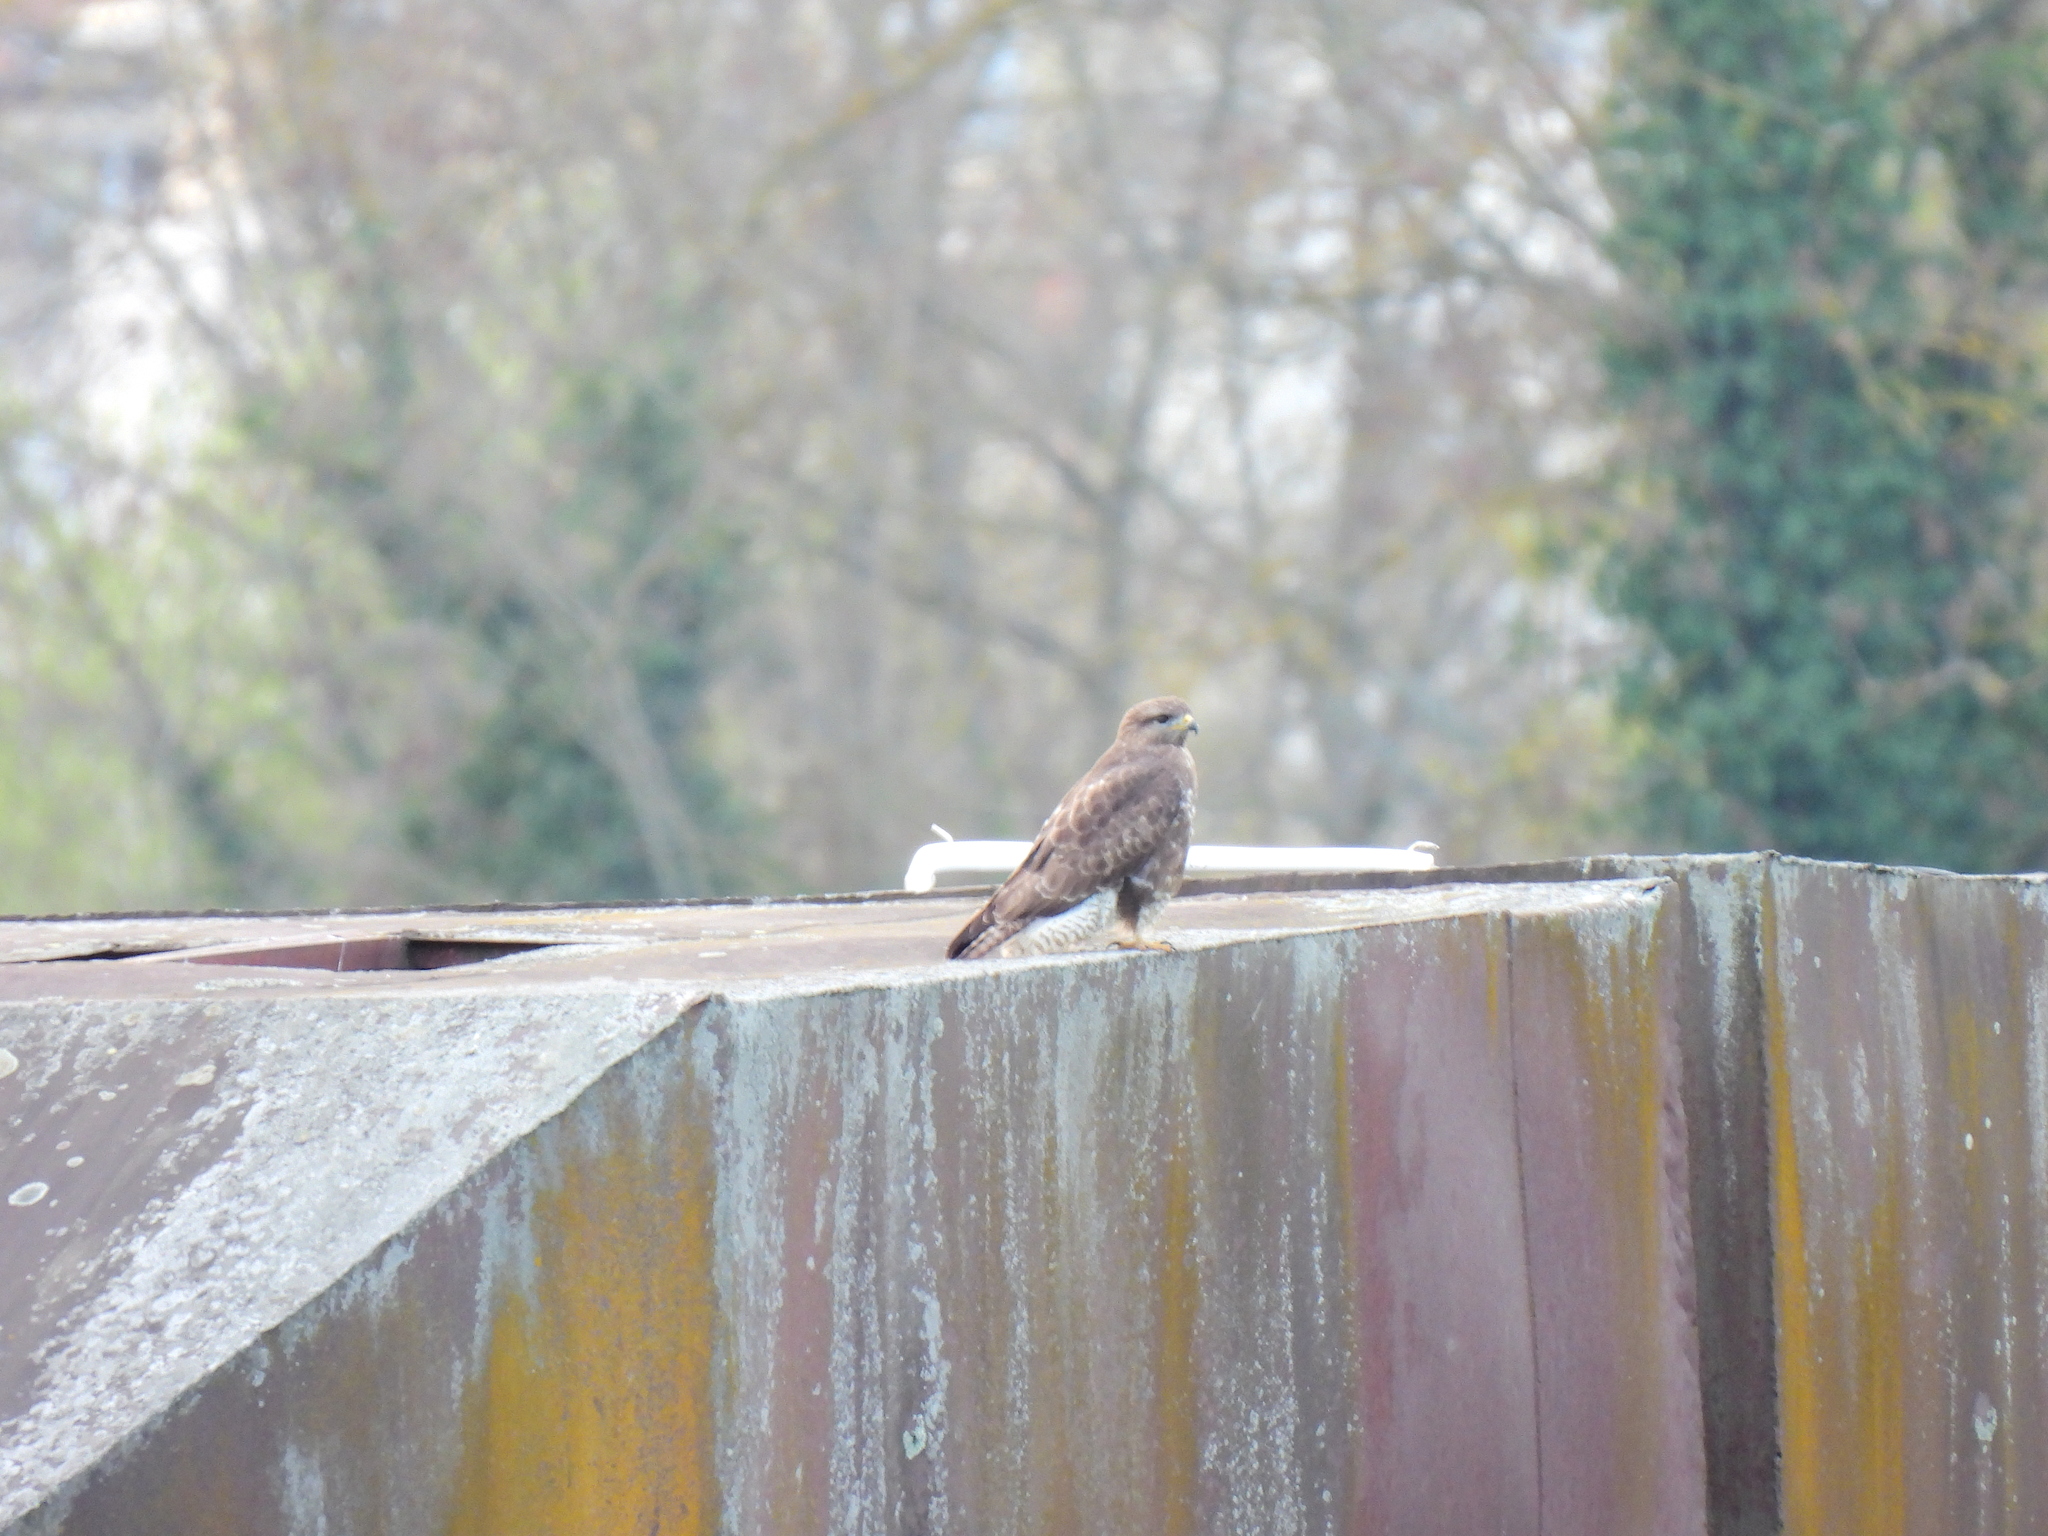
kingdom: Animalia
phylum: Chordata
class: Aves
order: Accipitriformes
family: Accipitridae
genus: Buteo
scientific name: Buteo buteo
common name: Common buzzard
